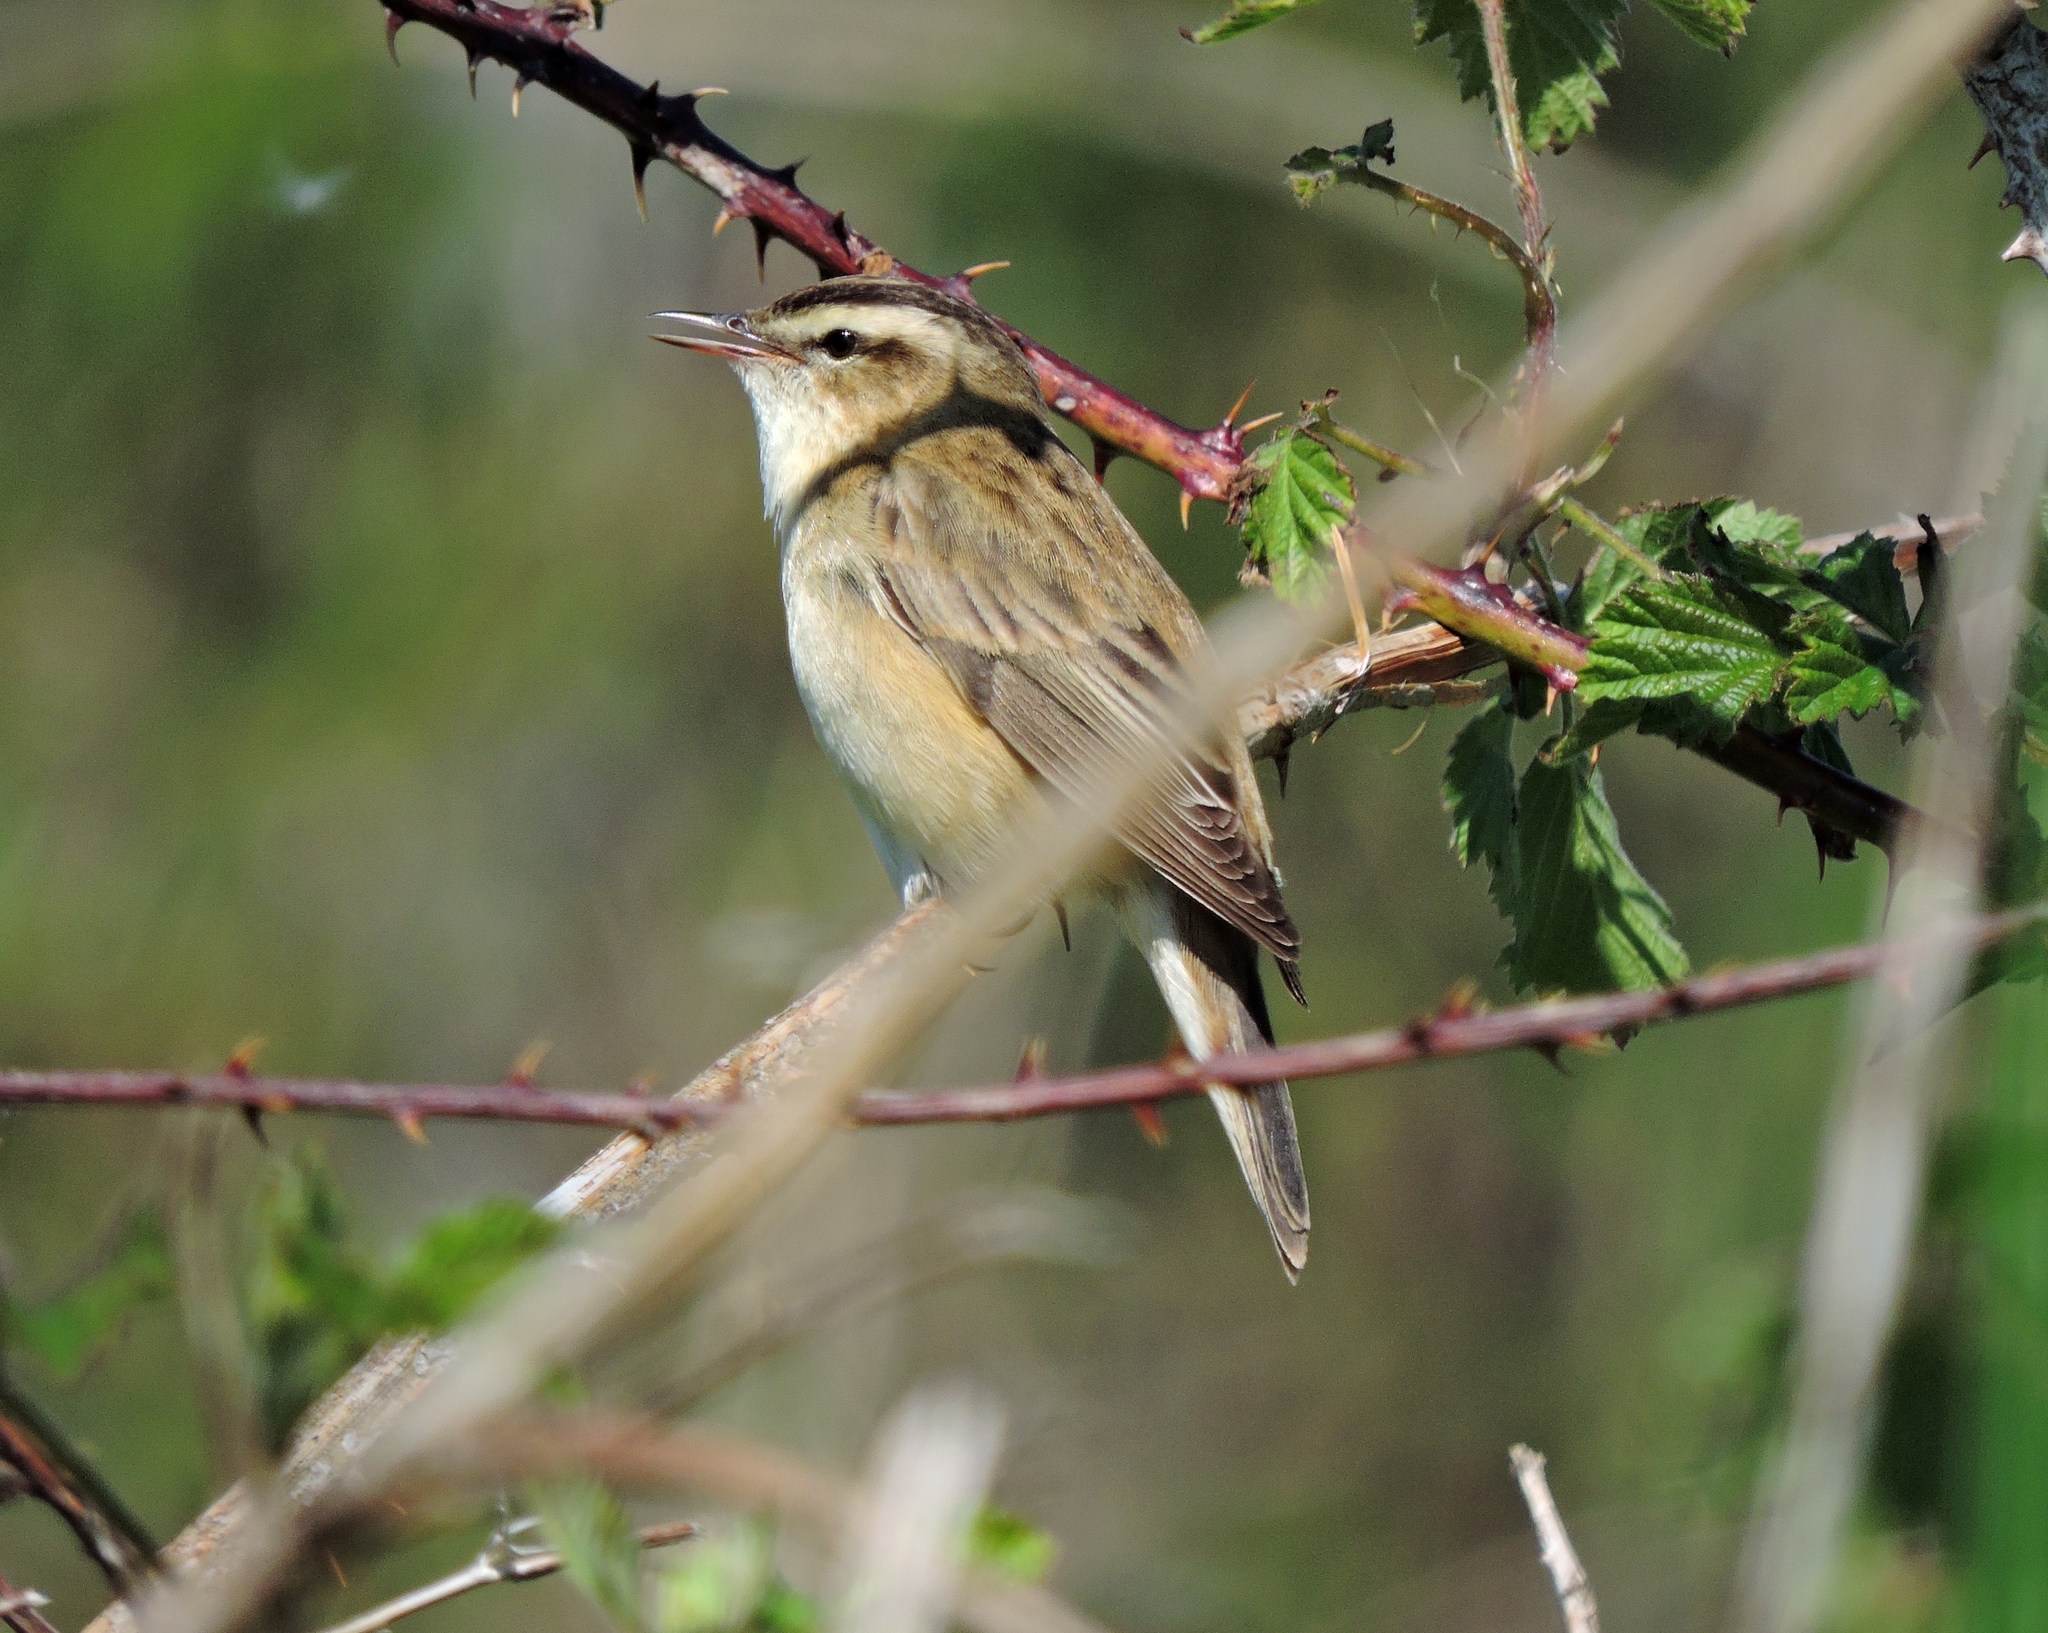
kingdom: Animalia
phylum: Chordata
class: Aves
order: Passeriformes
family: Acrocephalidae
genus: Acrocephalus
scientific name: Acrocephalus schoenobaenus
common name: Sedge warbler
